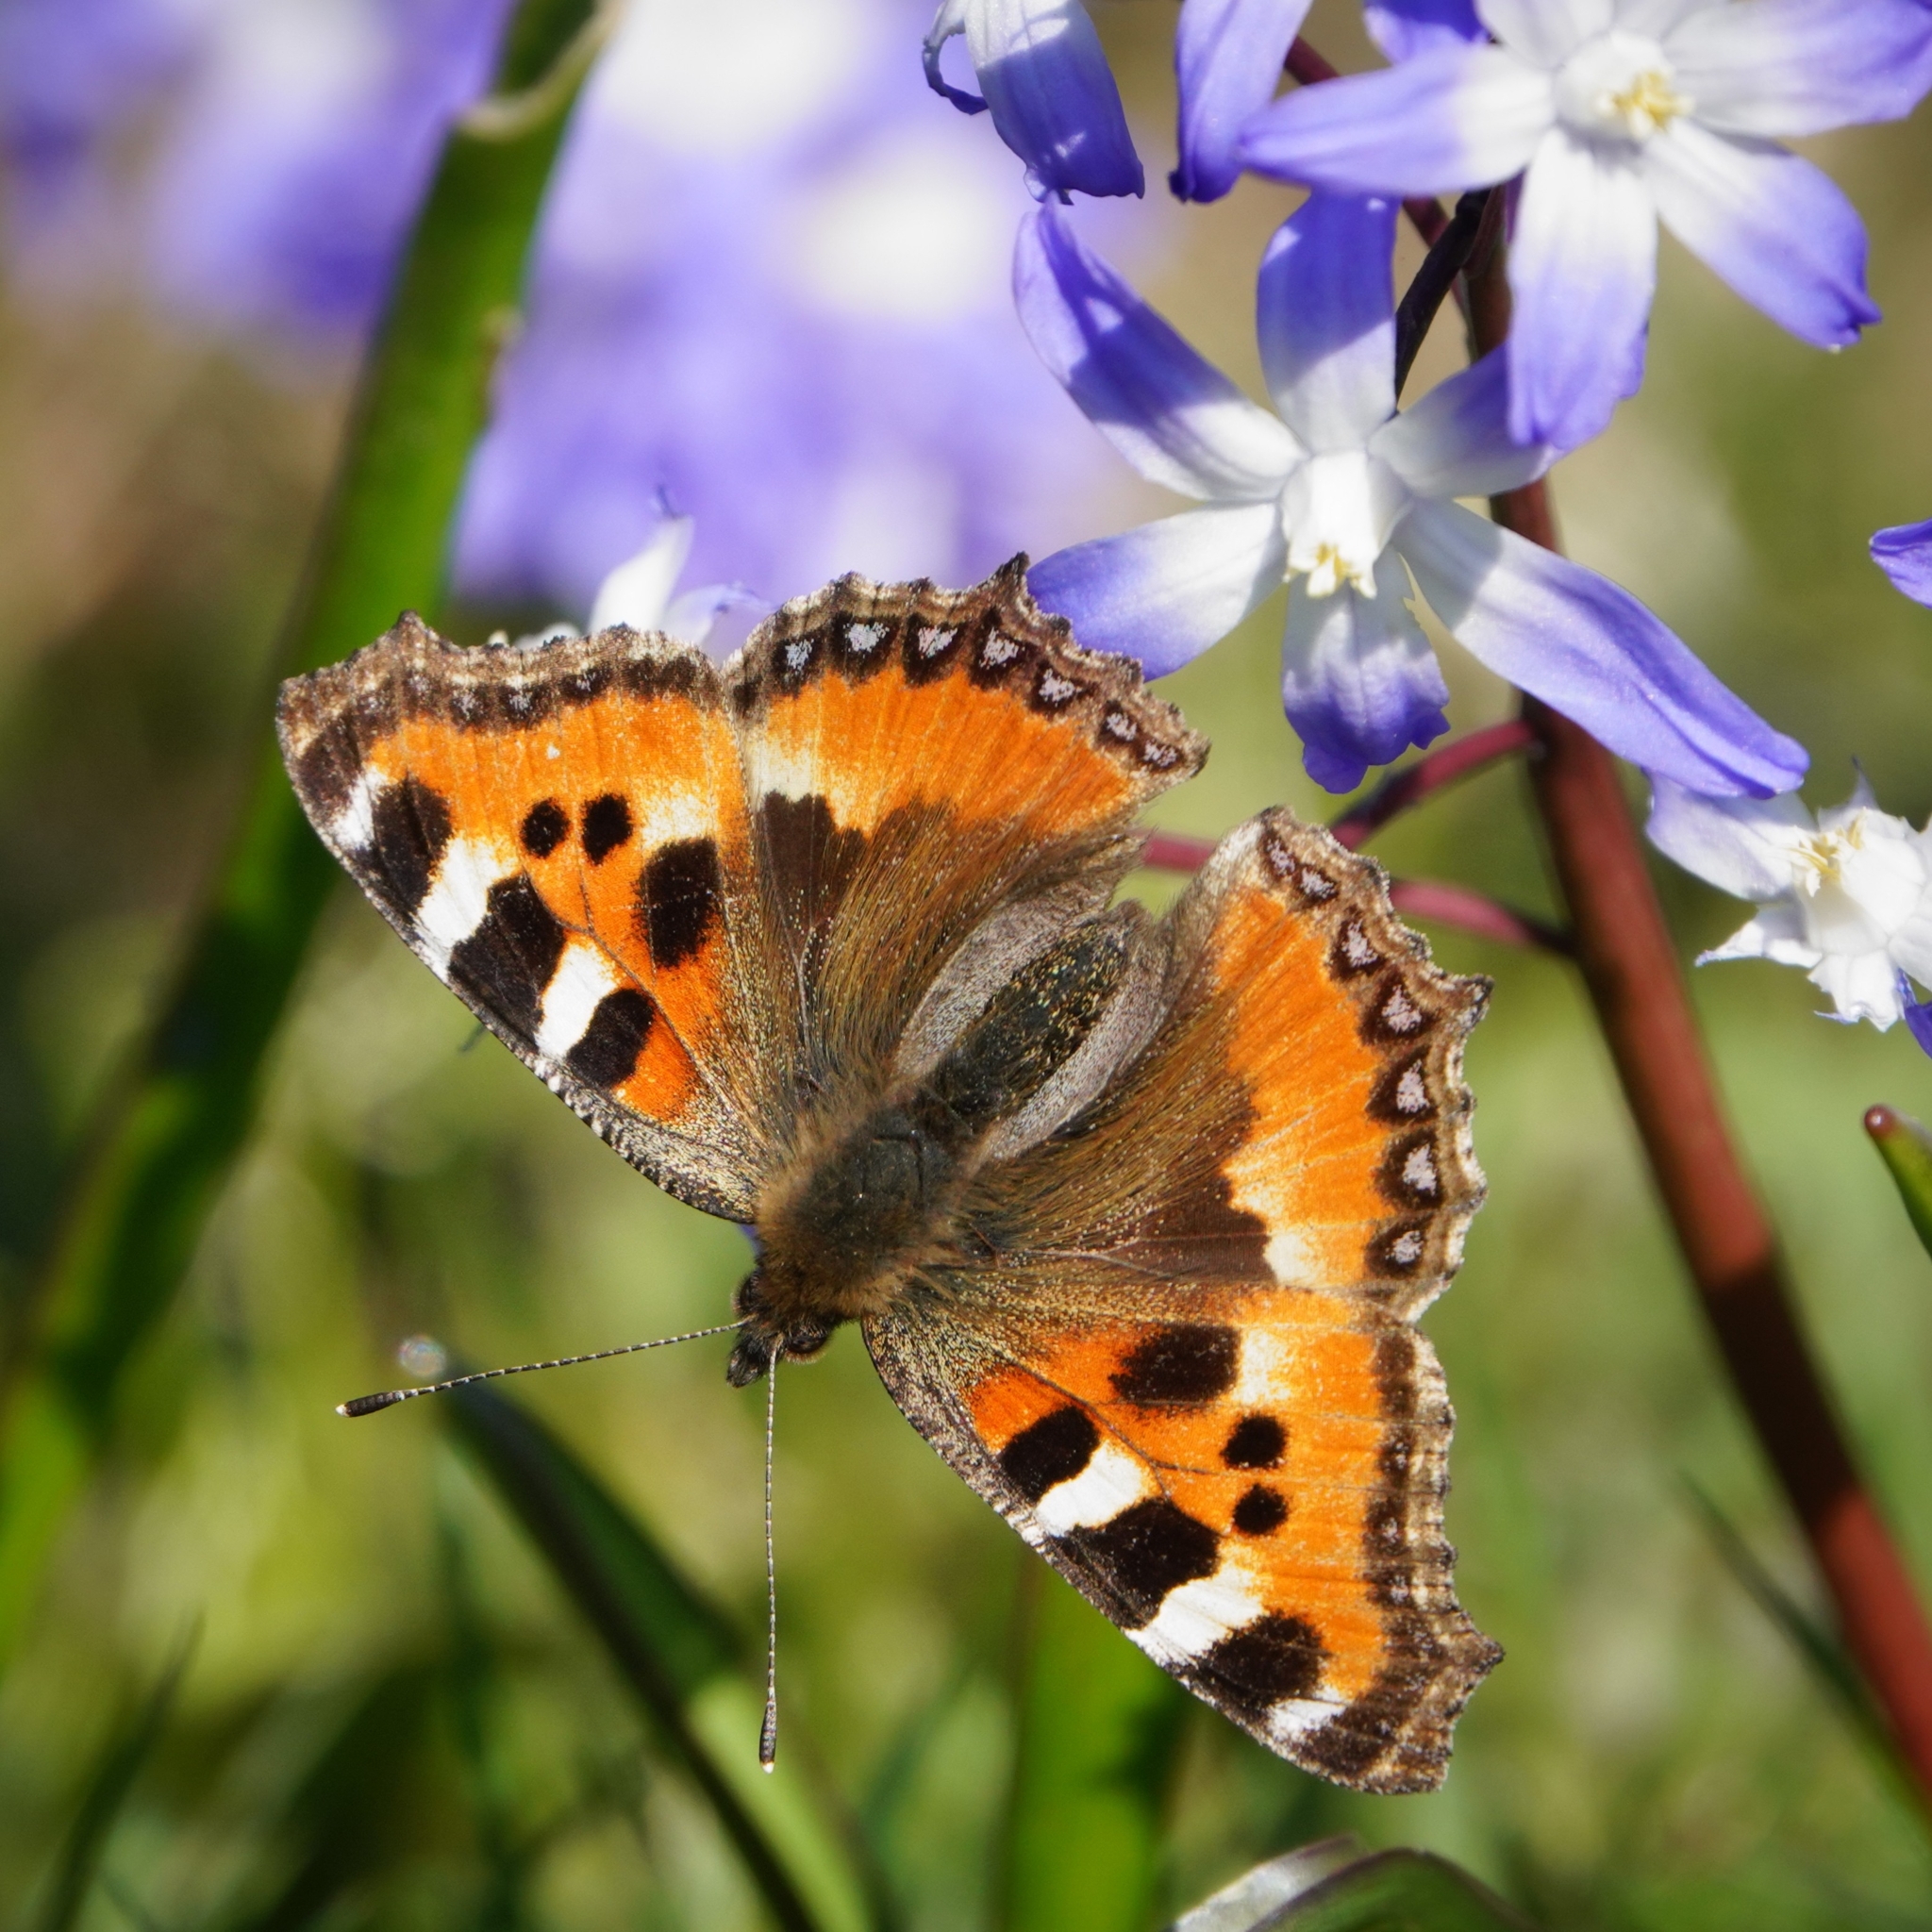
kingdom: Animalia
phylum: Arthropoda
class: Insecta
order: Lepidoptera
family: Nymphalidae
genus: Aglais
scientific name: Aglais urticae
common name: Small tortoiseshell
